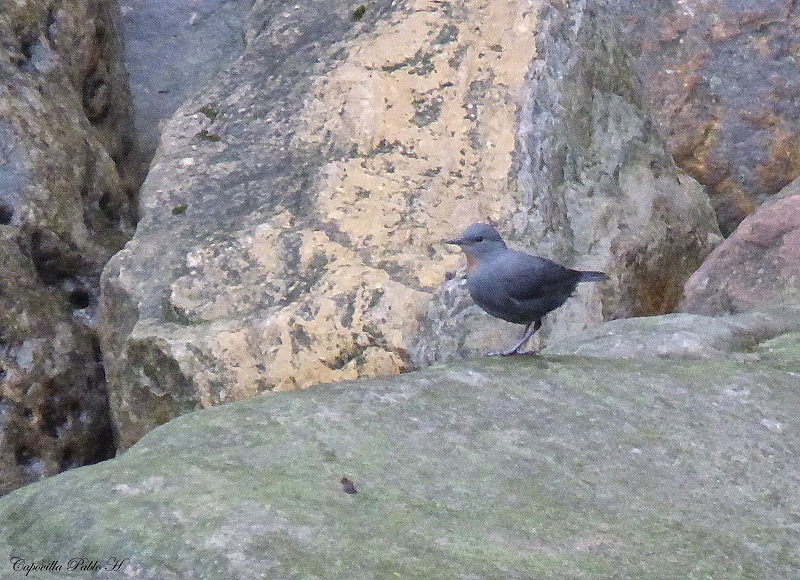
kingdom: Animalia
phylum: Chordata
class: Aves
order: Passeriformes
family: Cinclidae
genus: Cinclus
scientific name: Cinclus schulzii
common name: Rufous-throated dipper
